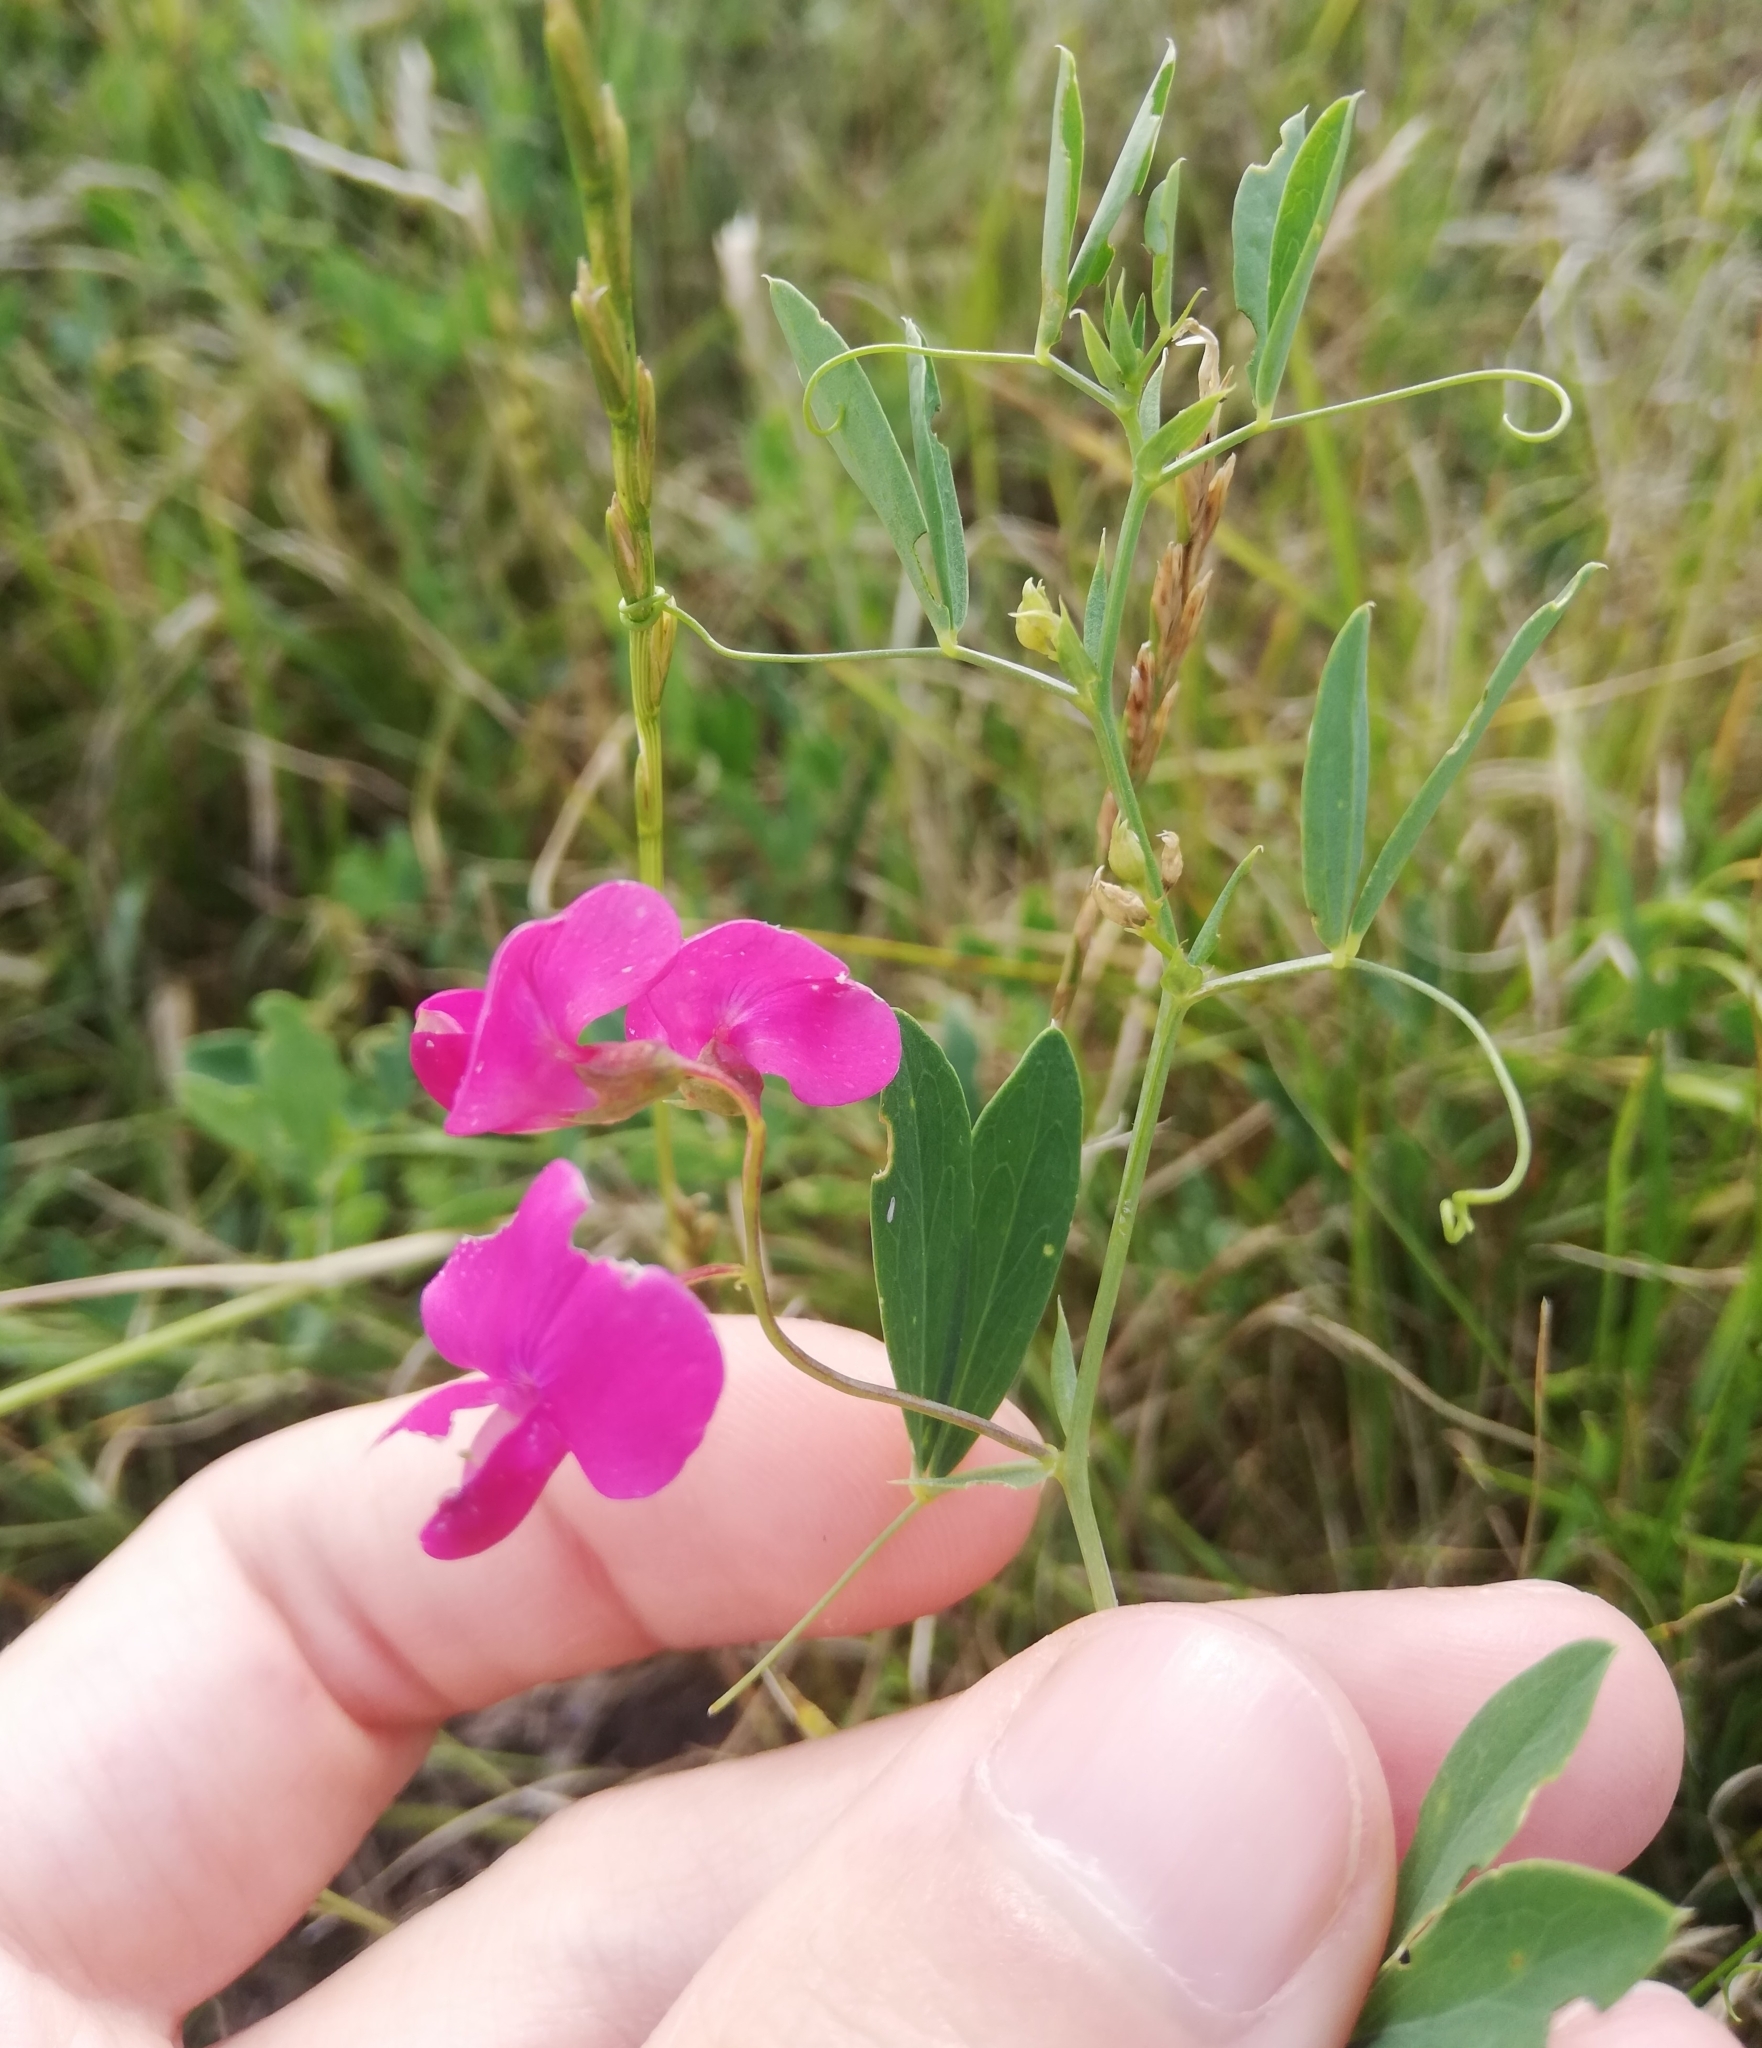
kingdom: Plantae
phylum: Tracheophyta
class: Magnoliopsida
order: Fabales
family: Fabaceae
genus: Lathyrus
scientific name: Lathyrus tuberosus
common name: Tuberous pea
